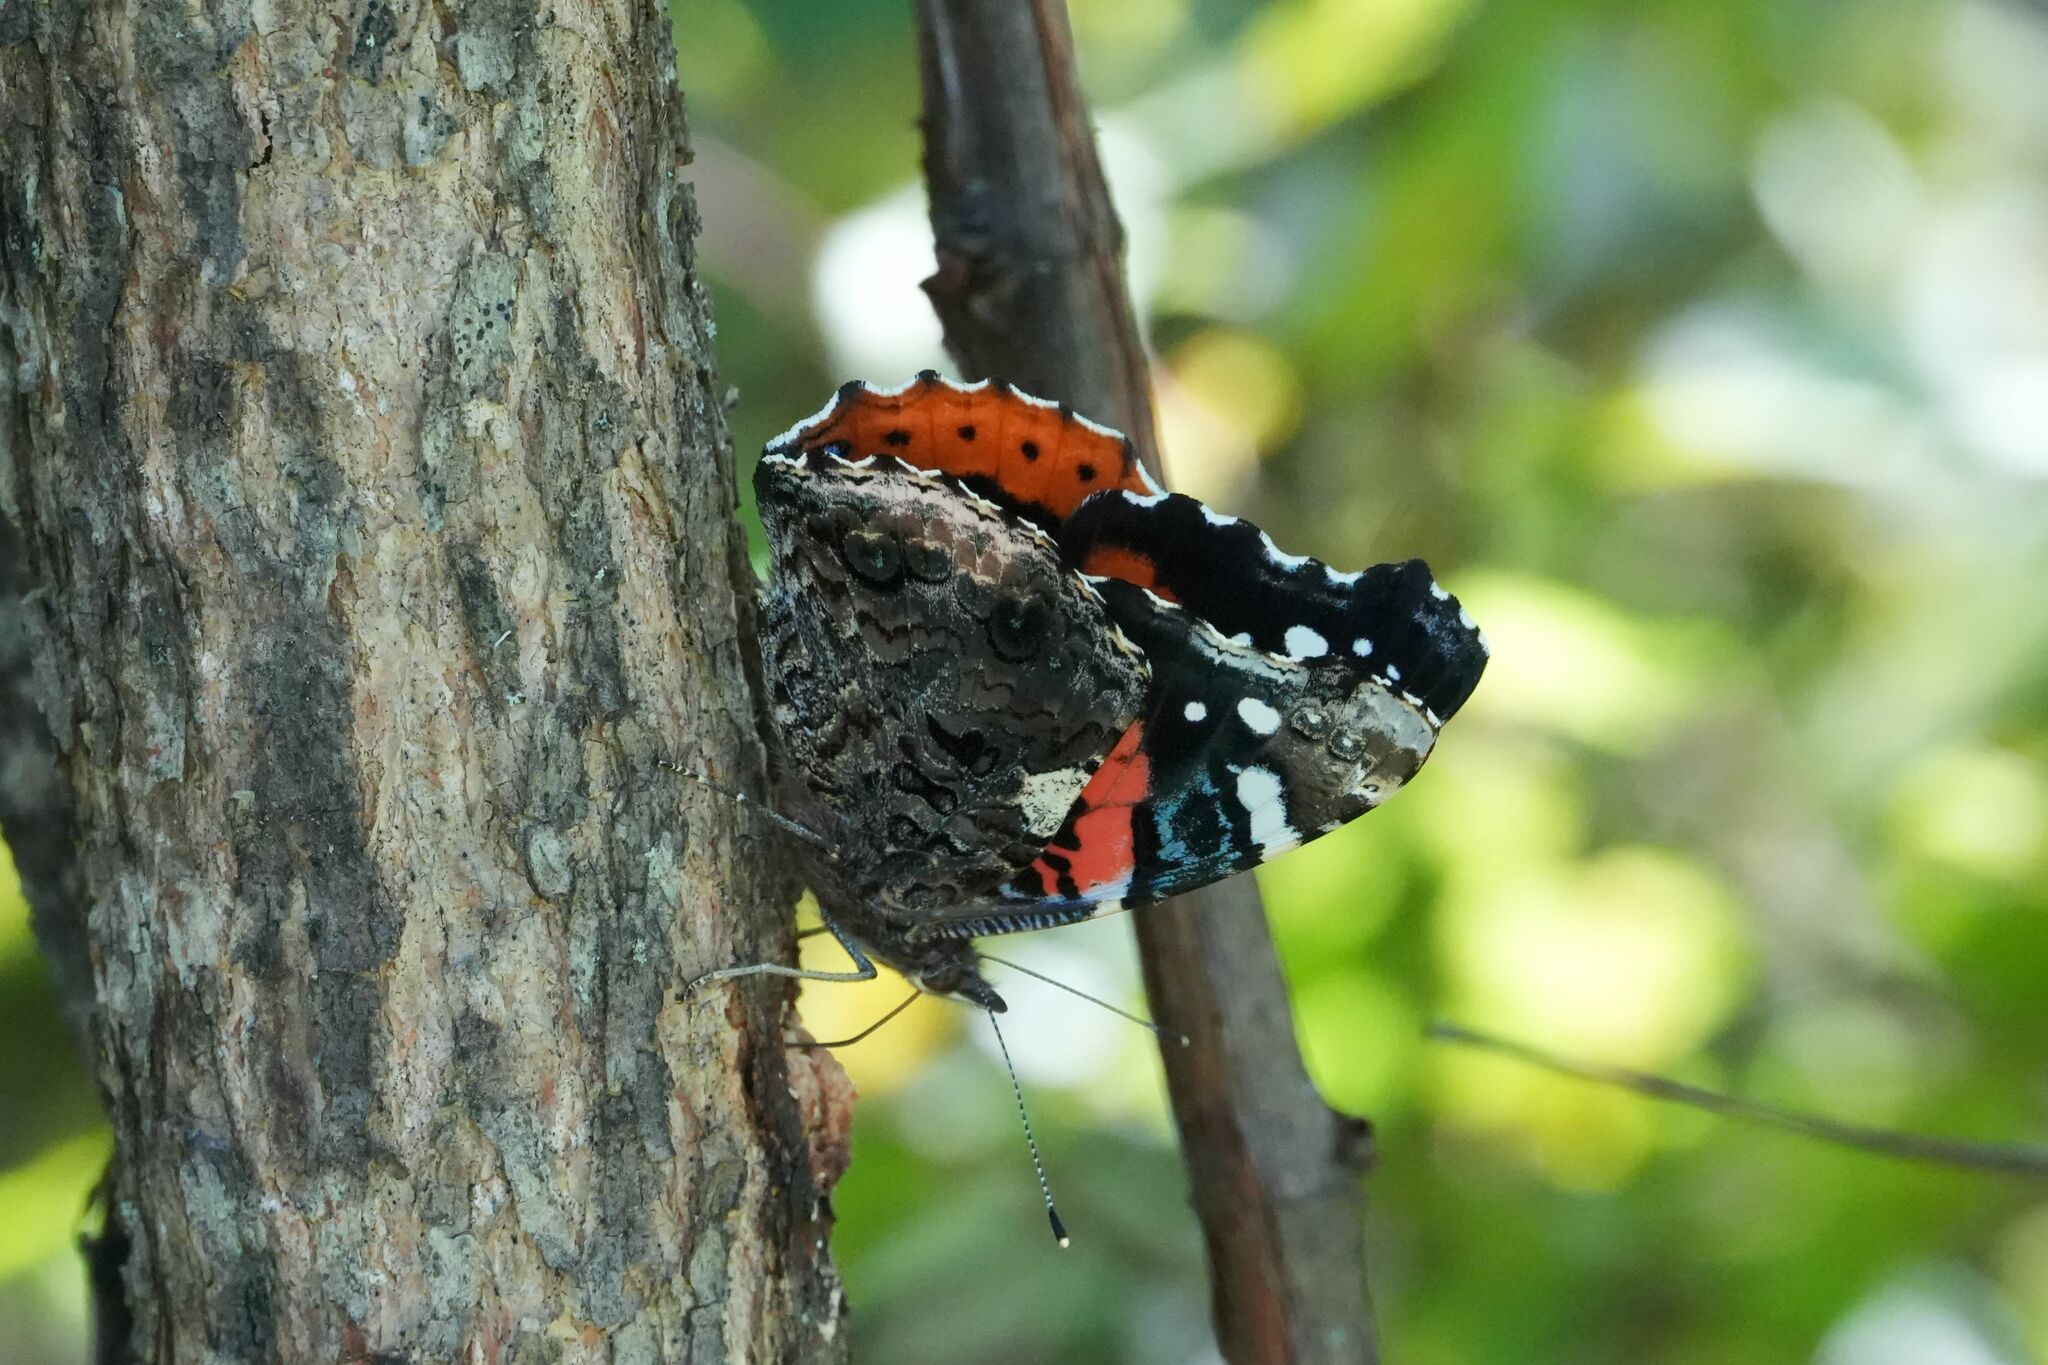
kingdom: Animalia
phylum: Arthropoda
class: Insecta
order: Lepidoptera
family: Nymphalidae
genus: Vanessa
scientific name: Vanessa atalanta
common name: Red admiral
